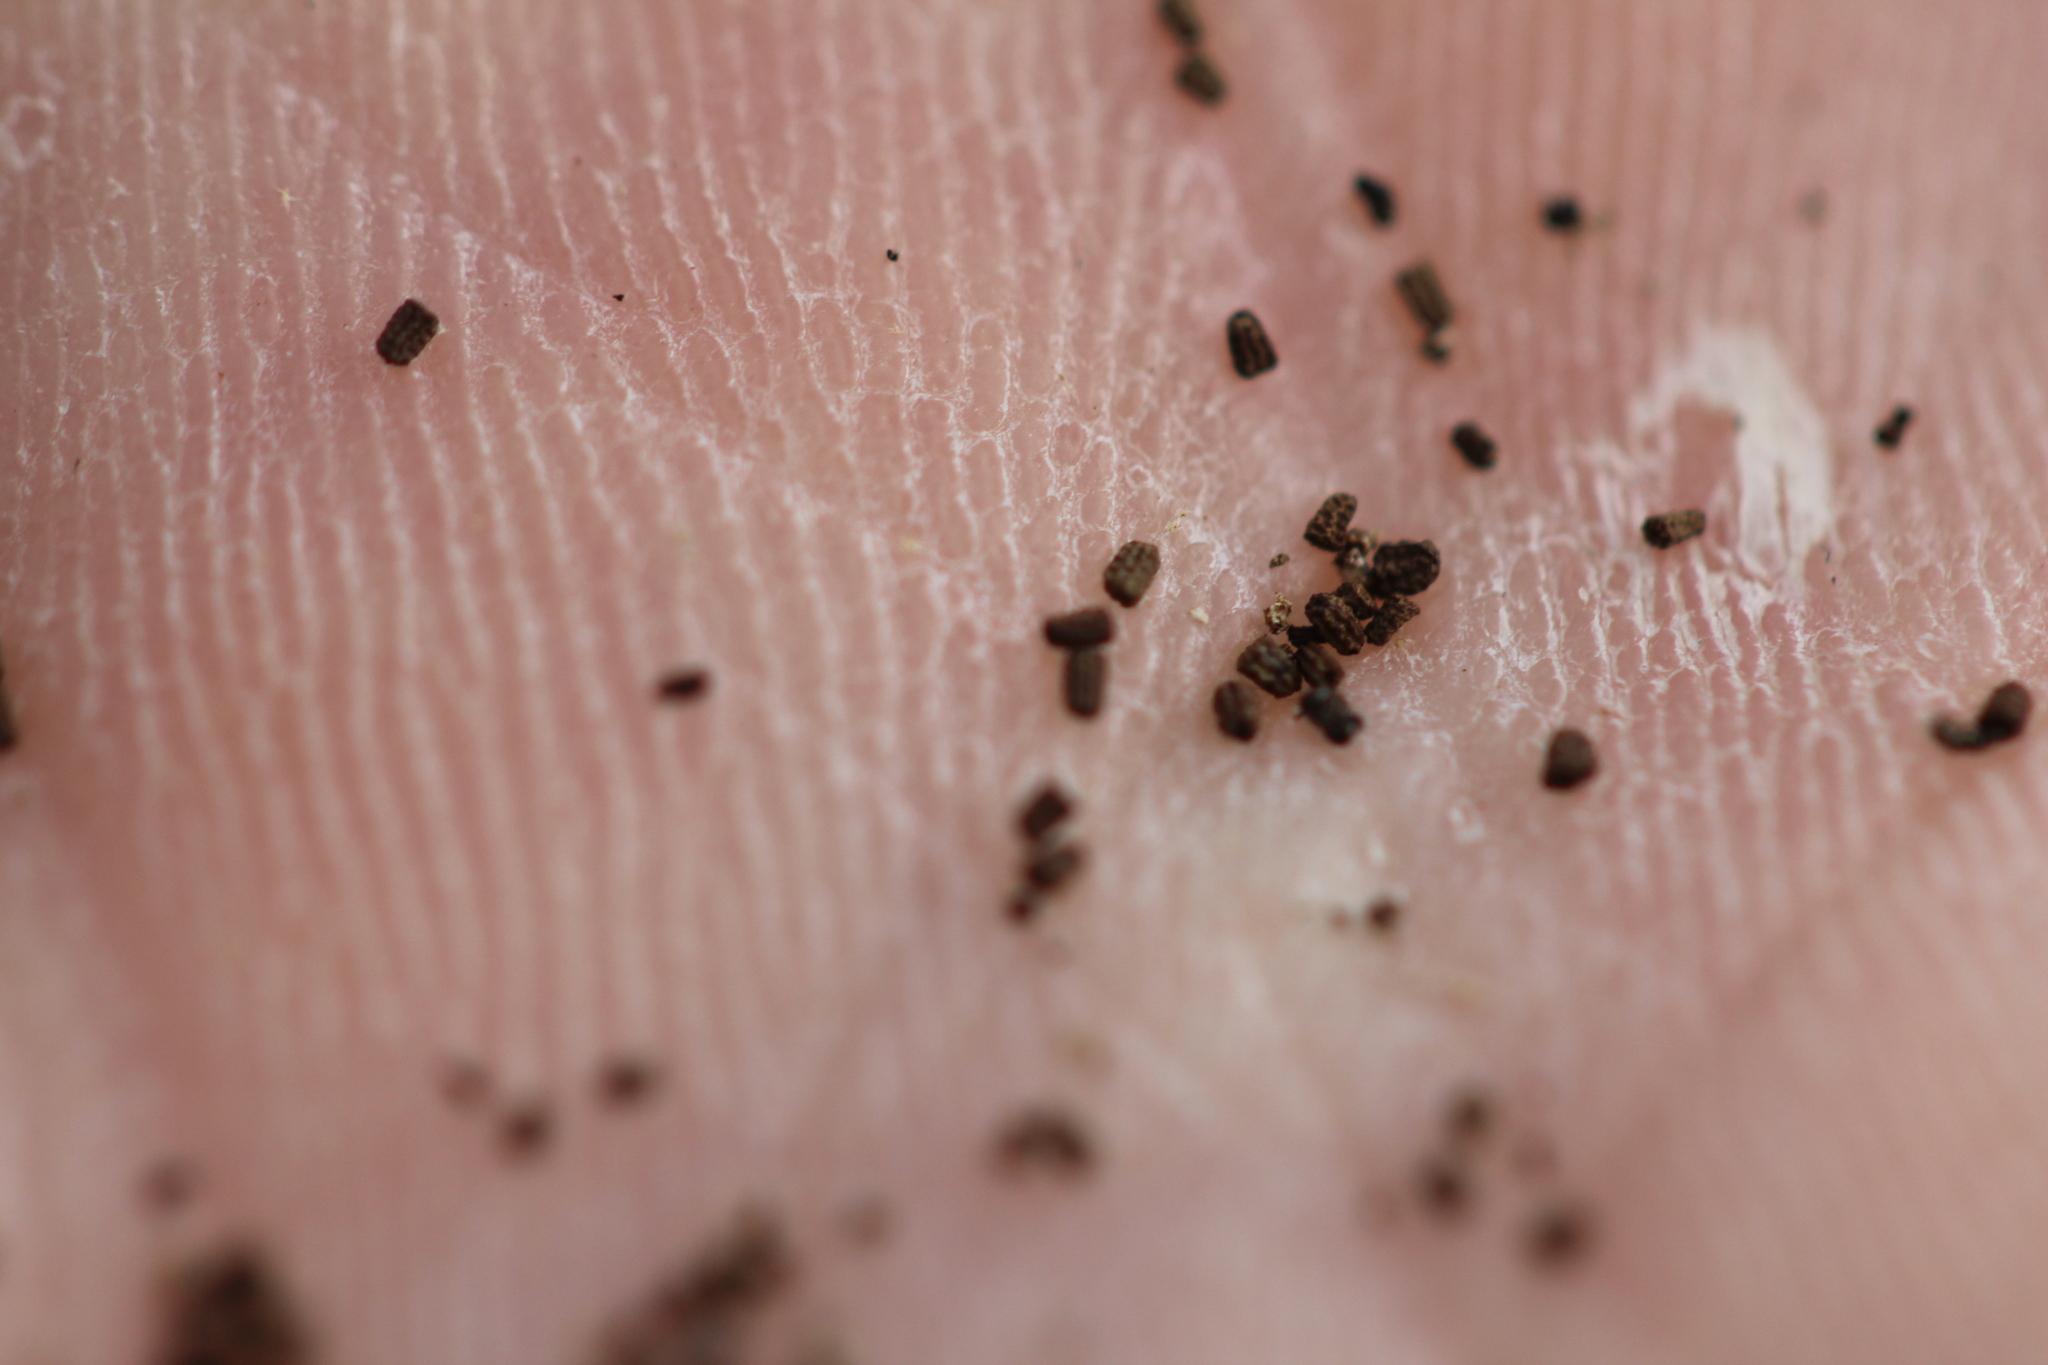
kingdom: Plantae
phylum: Tracheophyta
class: Magnoliopsida
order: Lamiales
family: Scrophulariaceae
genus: Verbascum
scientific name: Verbascum thapsus
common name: Common mullein
